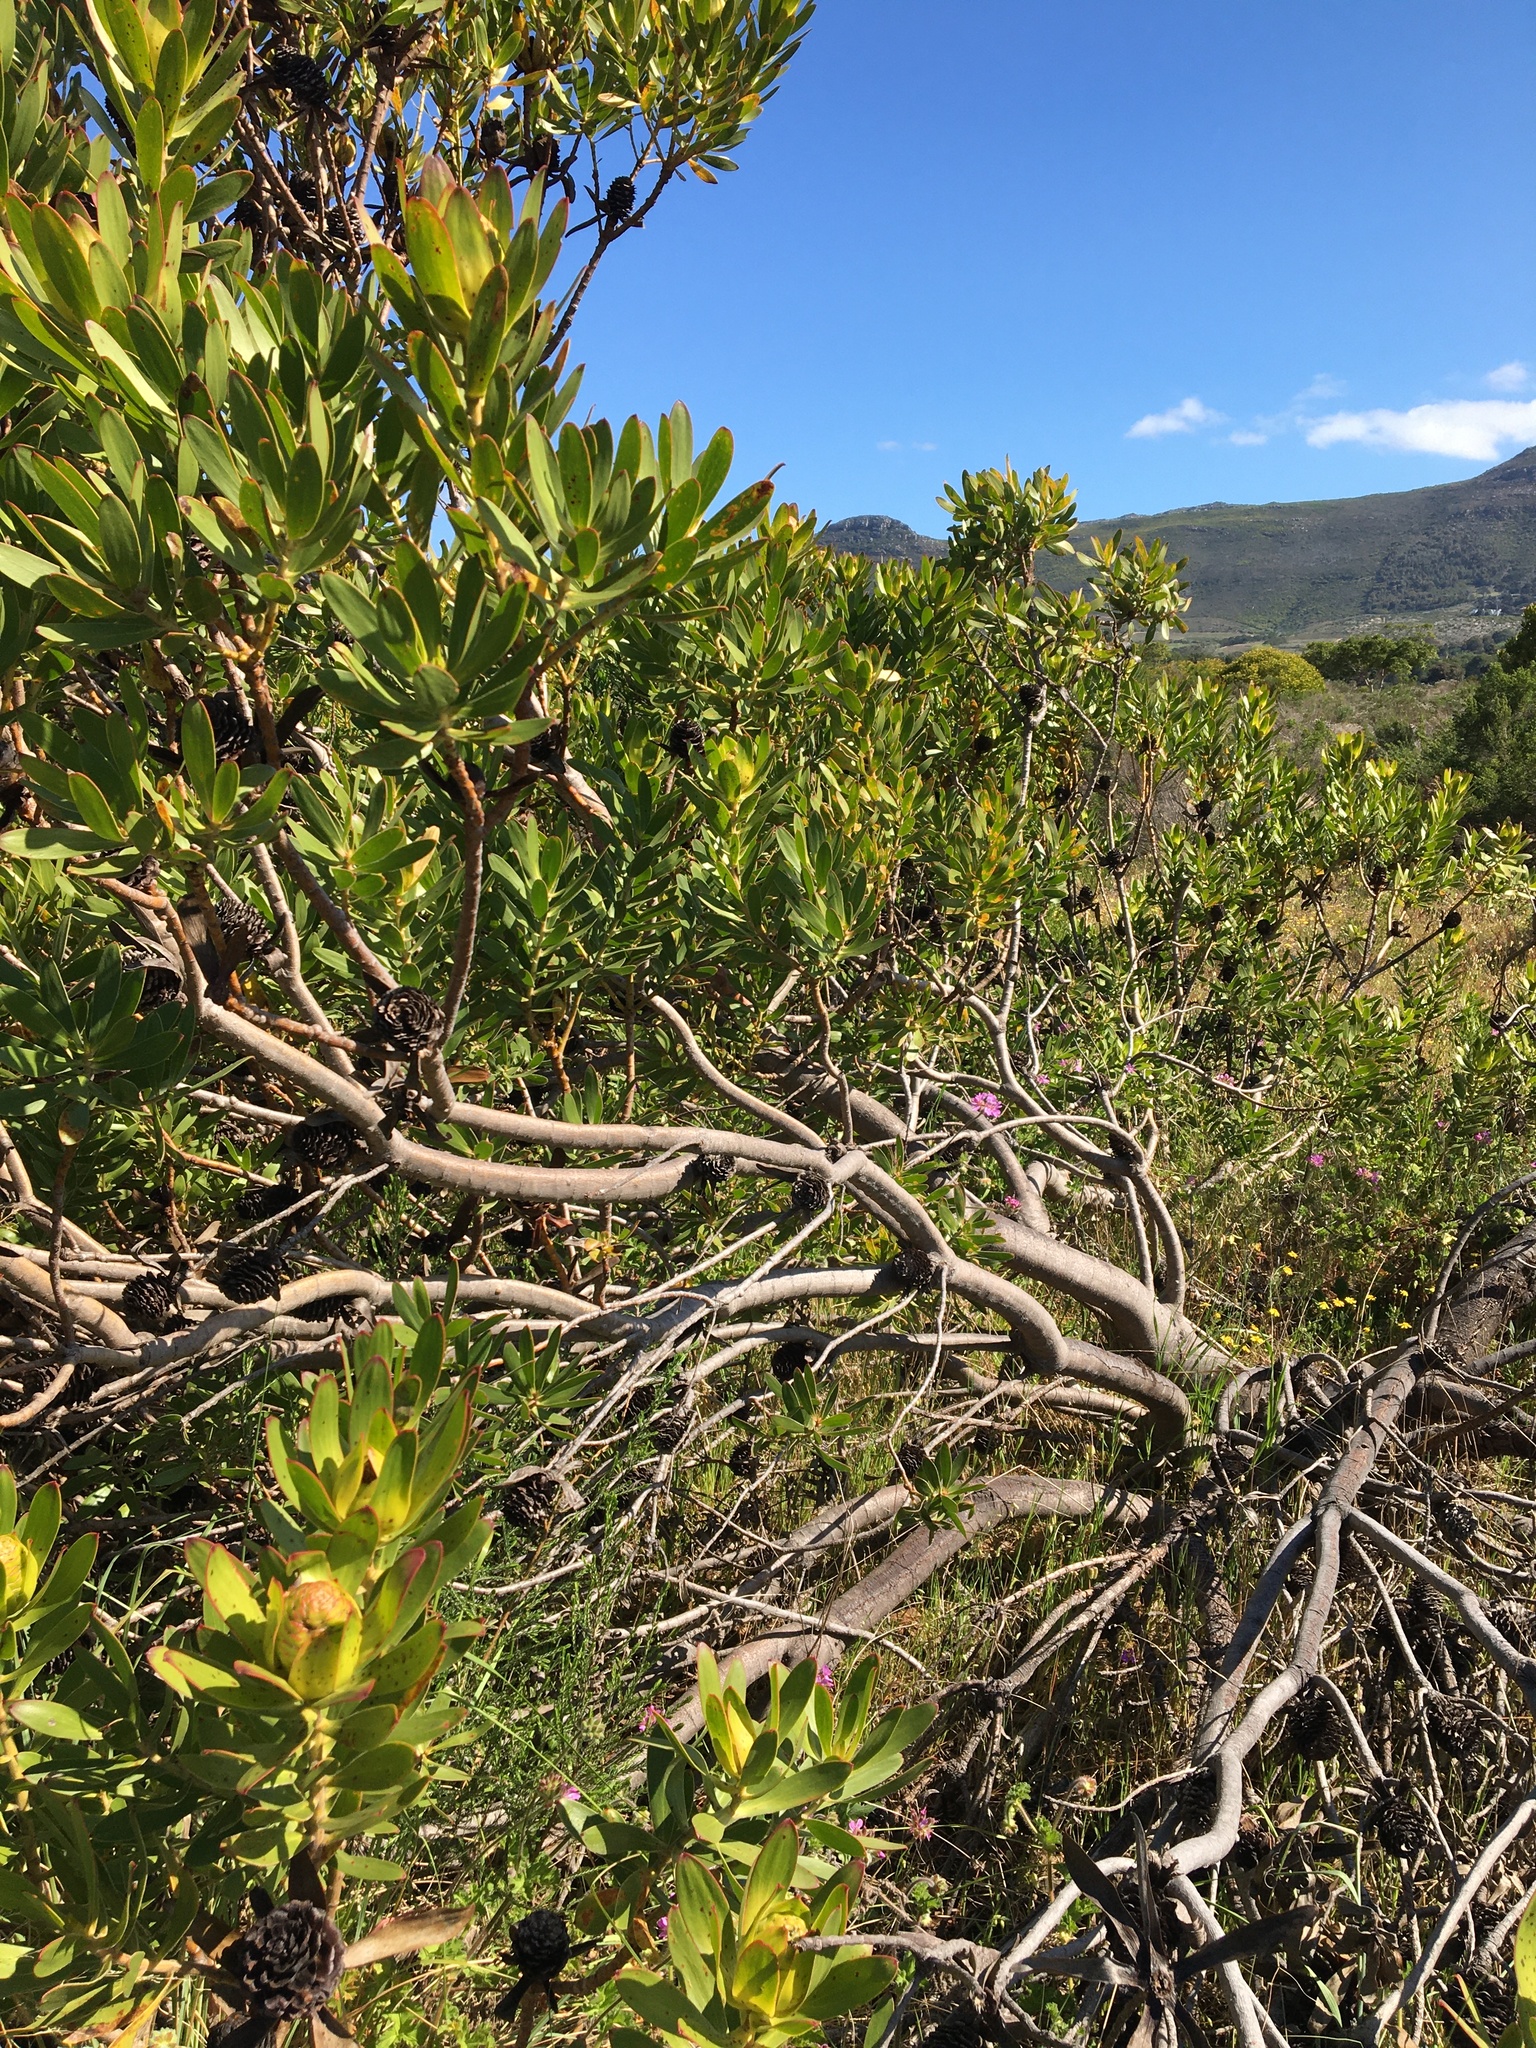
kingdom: Plantae
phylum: Tracheophyta
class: Magnoliopsida
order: Proteales
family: Proteaceae
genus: Leucadendron
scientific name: Leucadendron laureolum
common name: Golden sunshinebush
